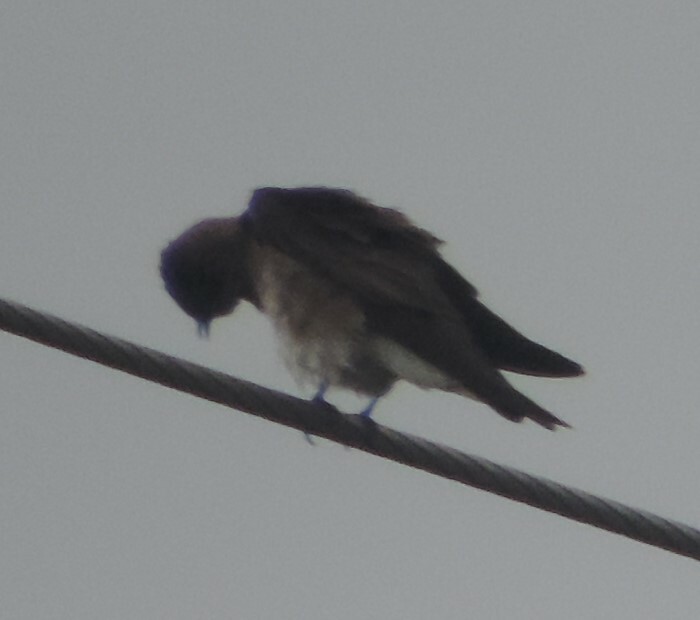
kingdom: Animalia
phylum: Chordata
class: Aves
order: Passeriformes
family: Hirundinidae
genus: Stelgidopteryx
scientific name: Stelgidopteryx serripennis
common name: Northern rough-winged swallow
